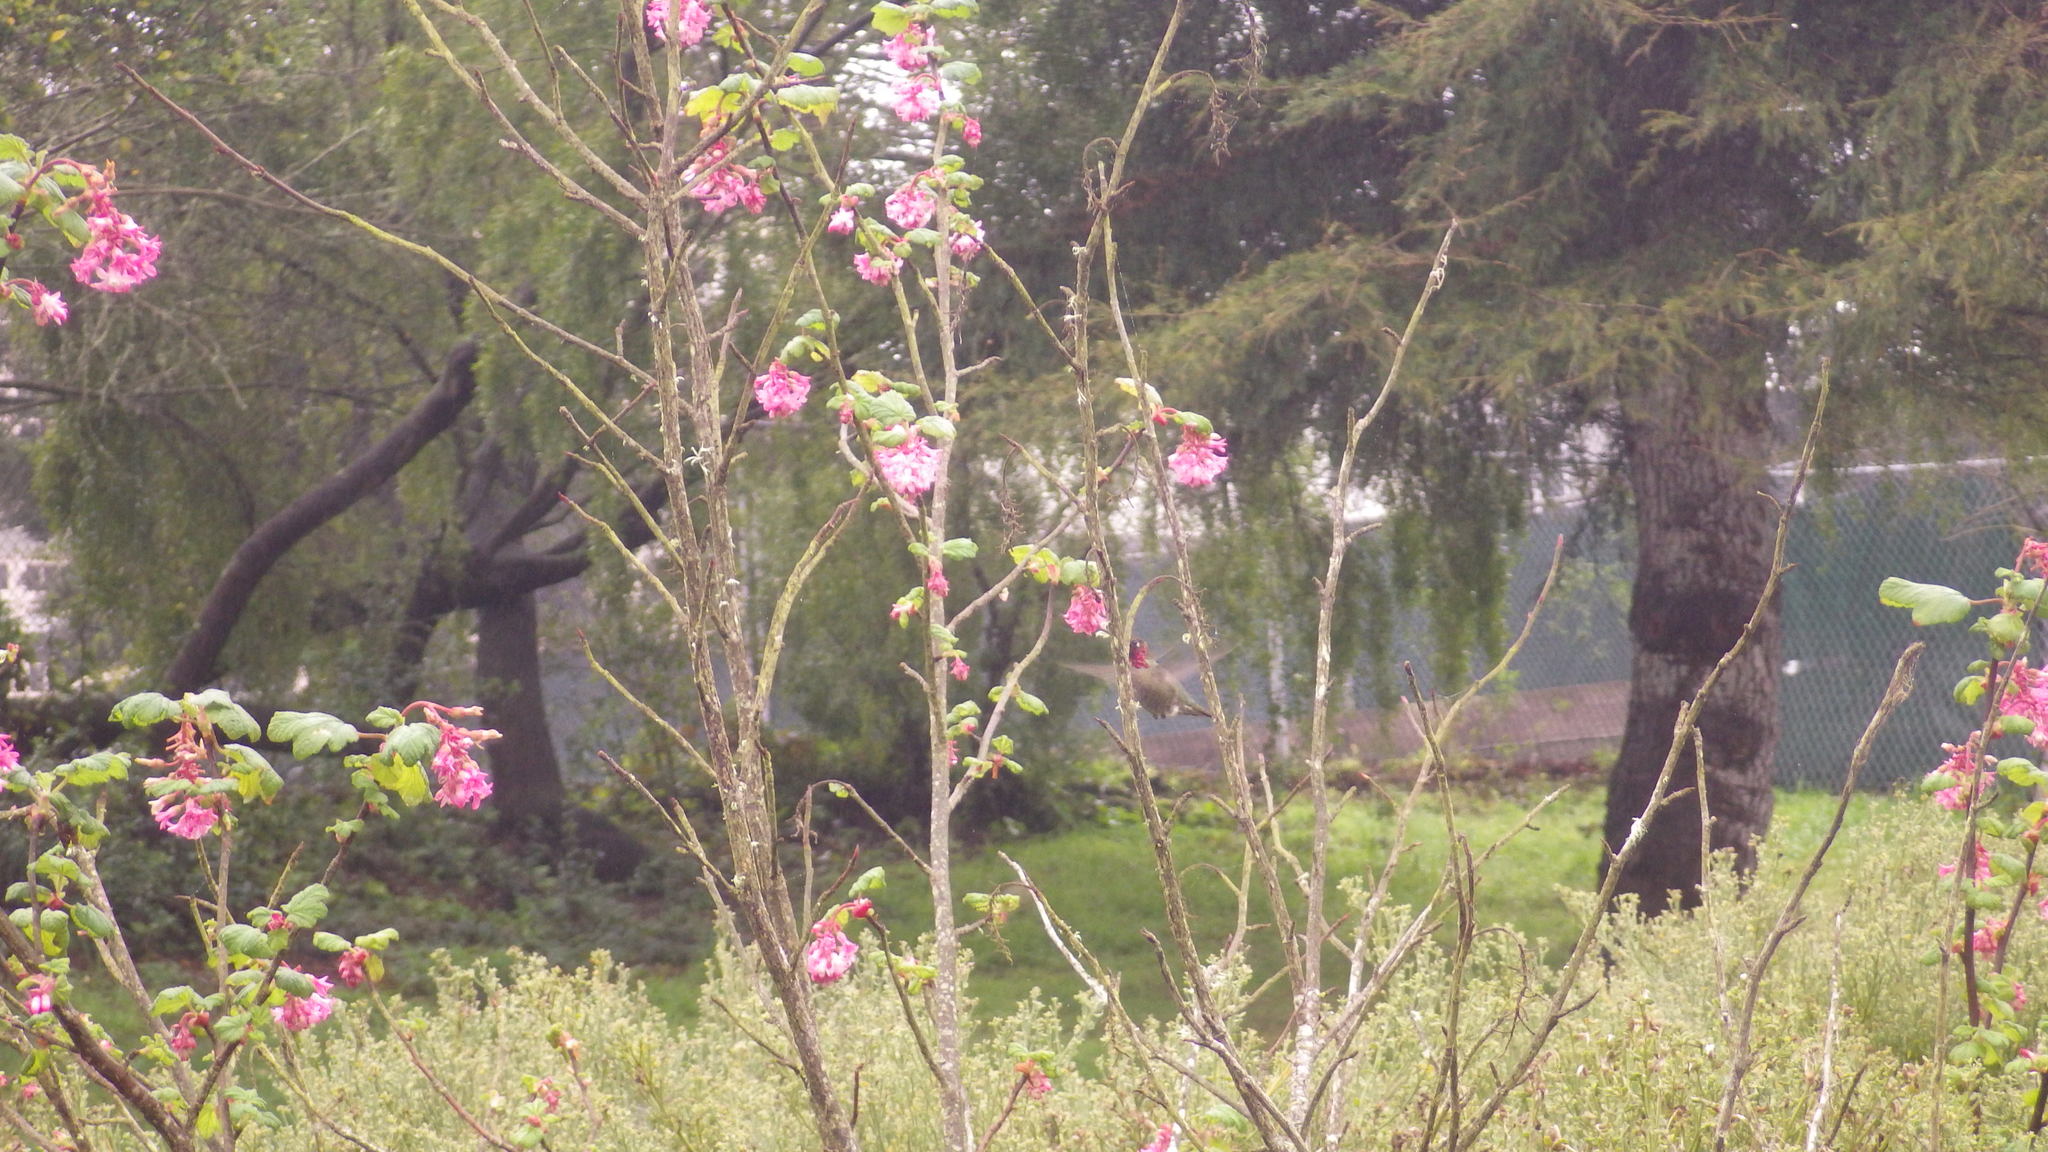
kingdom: Animalia
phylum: Chordata
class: Aves
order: Apodiformes
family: Trochilidae
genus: Calypte
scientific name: Calypte anna
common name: Anna's hummingbird
